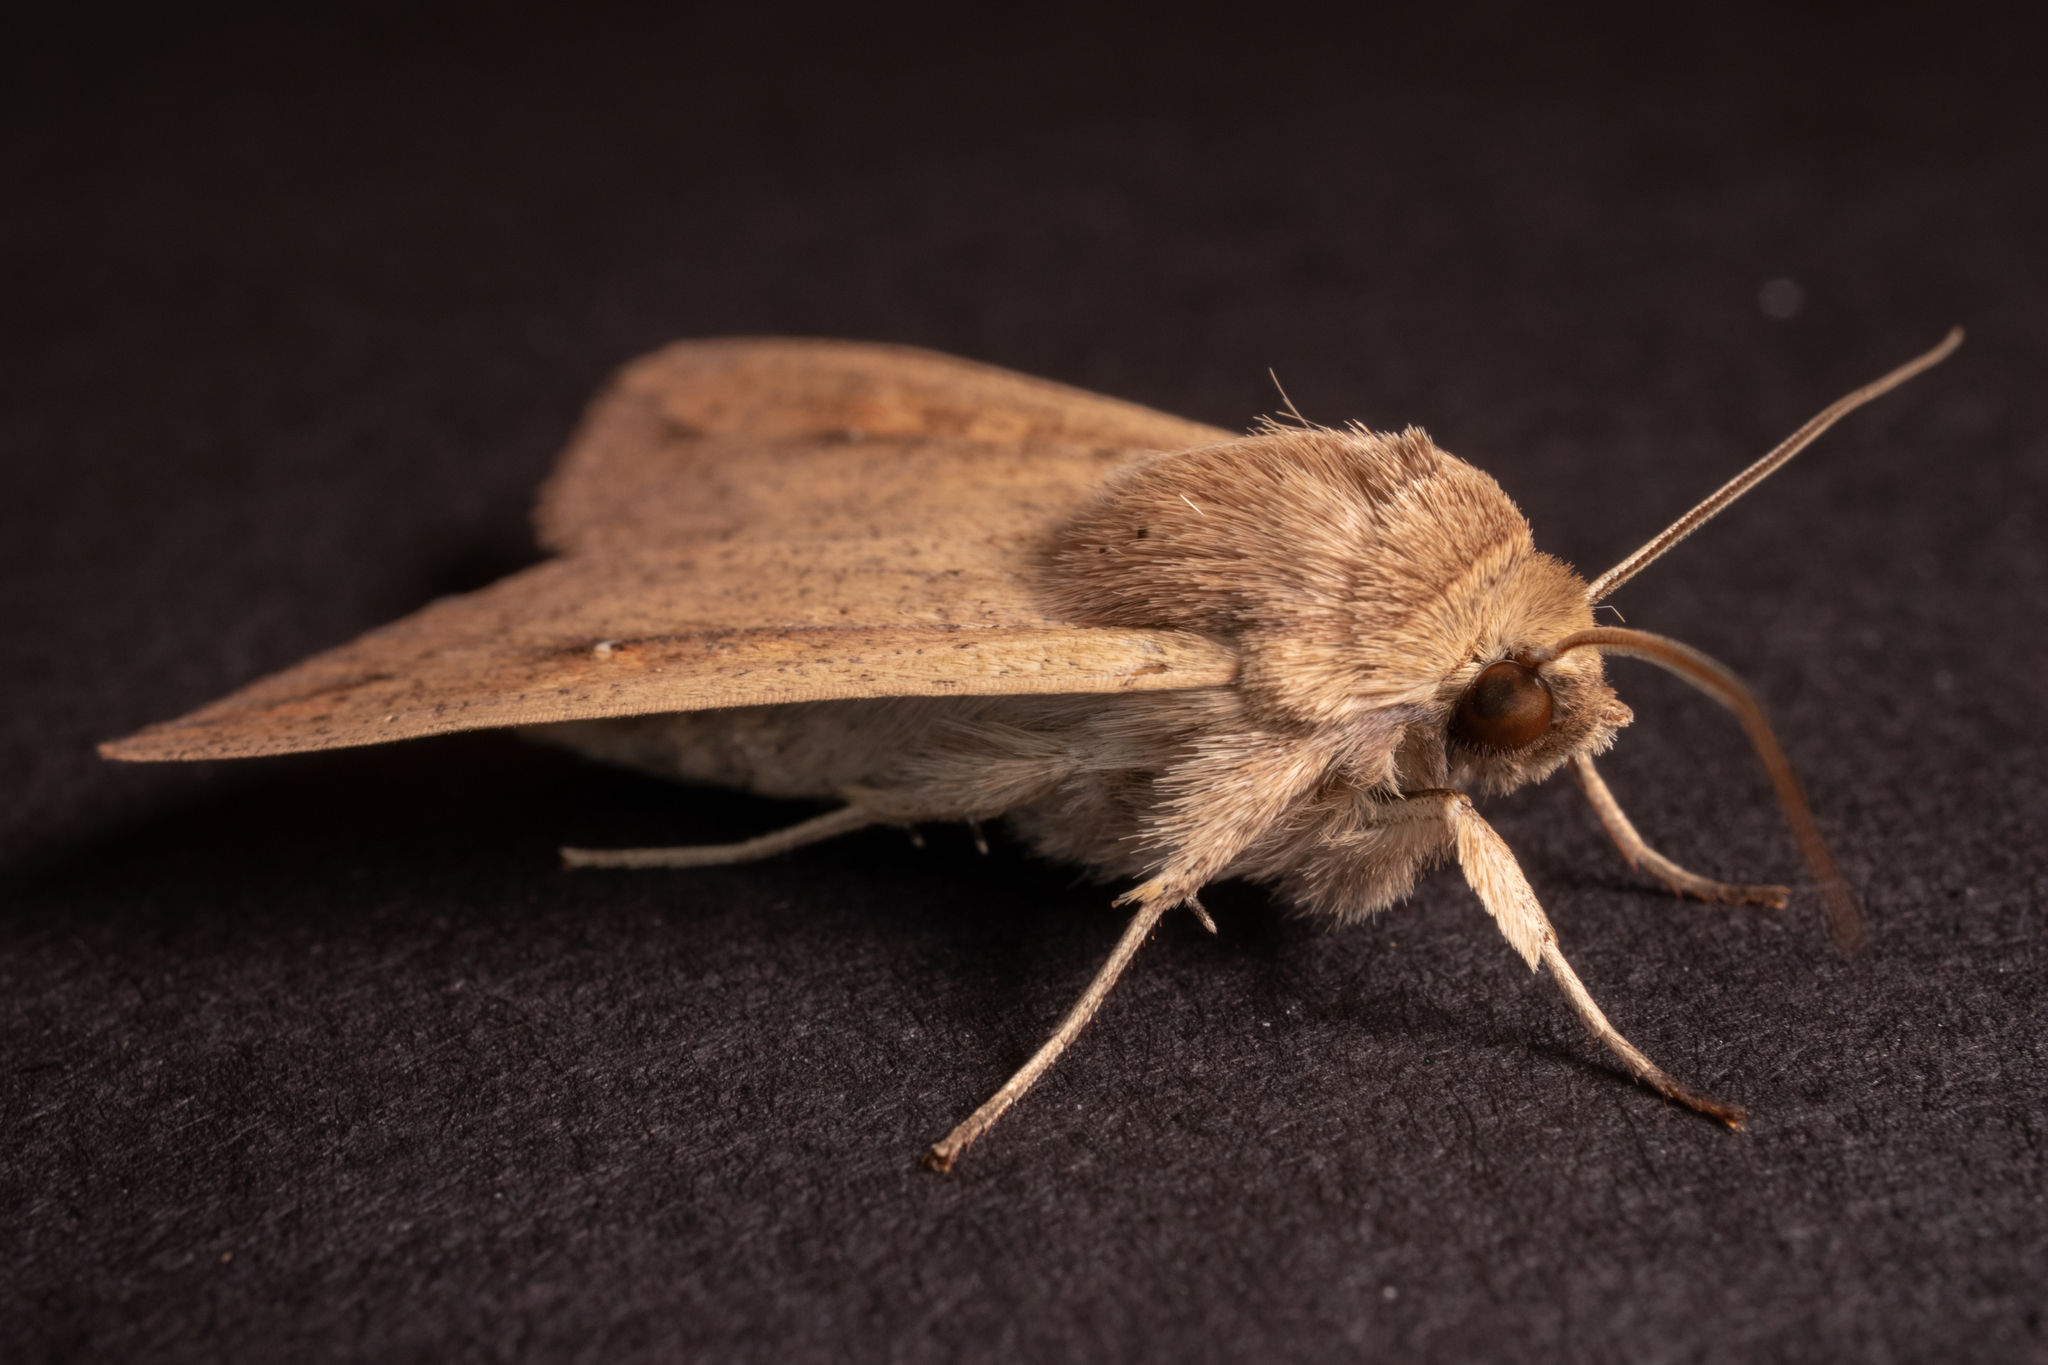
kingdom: Animalia
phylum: Arthropoda
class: Insecta
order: Lepidoptera
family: Noctuidae
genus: Mythimna
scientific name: Mythimna unipuncta
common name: White-speck
